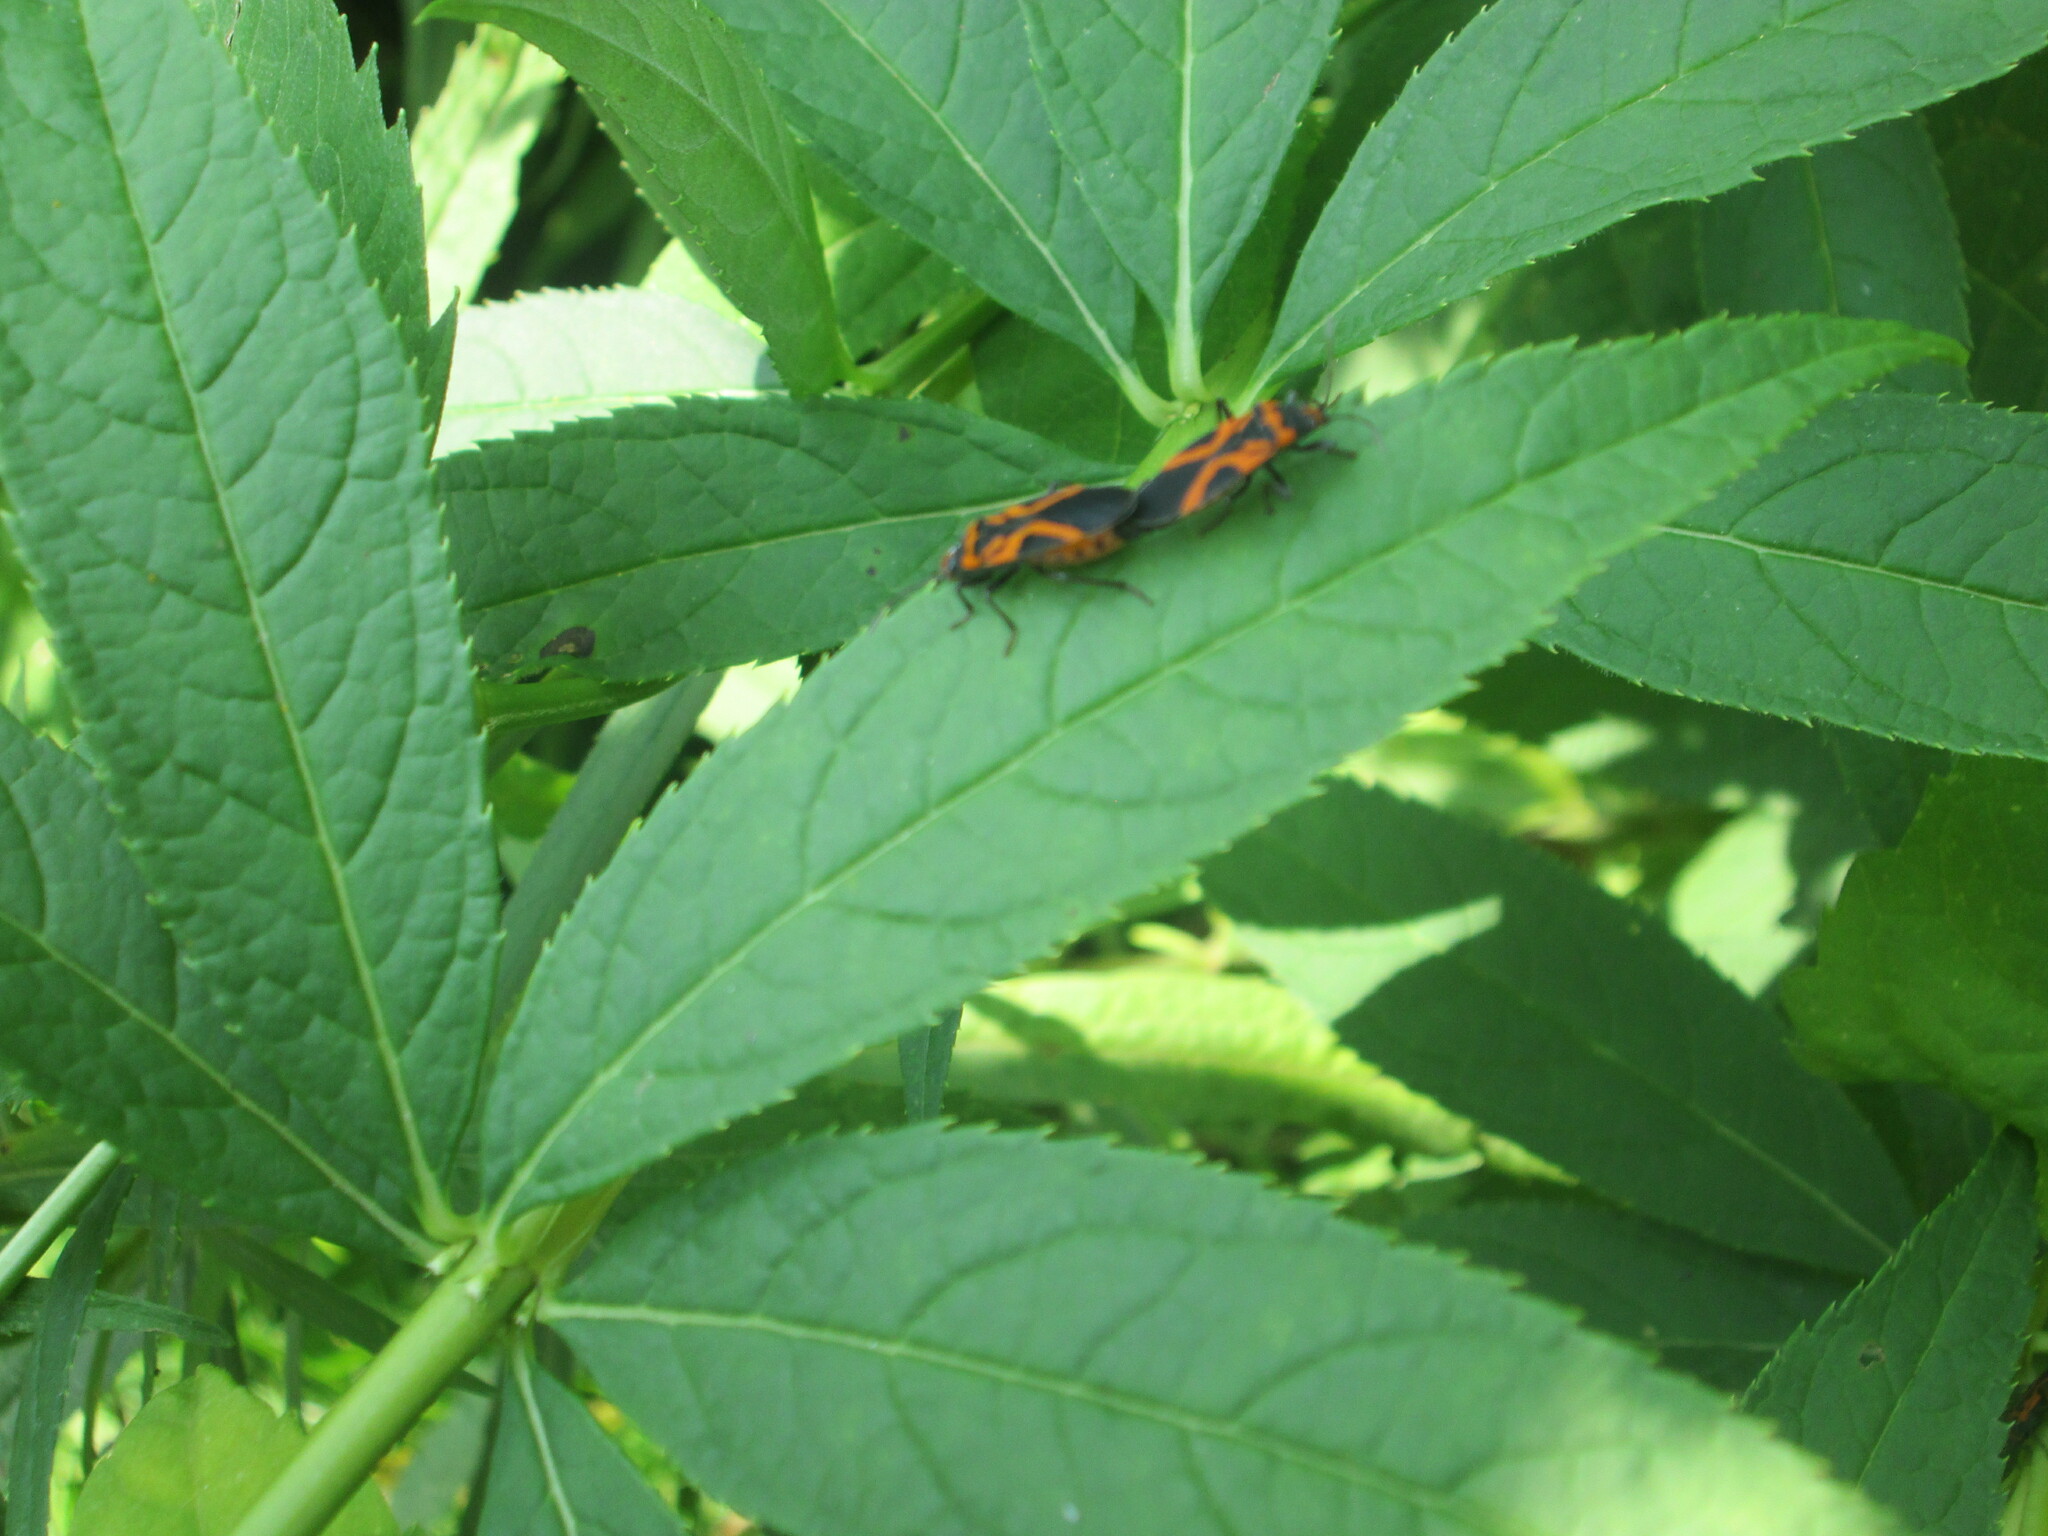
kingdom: Animalia
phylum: Arthropoda
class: Insecta
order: Hemiptera
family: Lygaeidae
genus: Lygaeus
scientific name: Lygaeus turcicus
